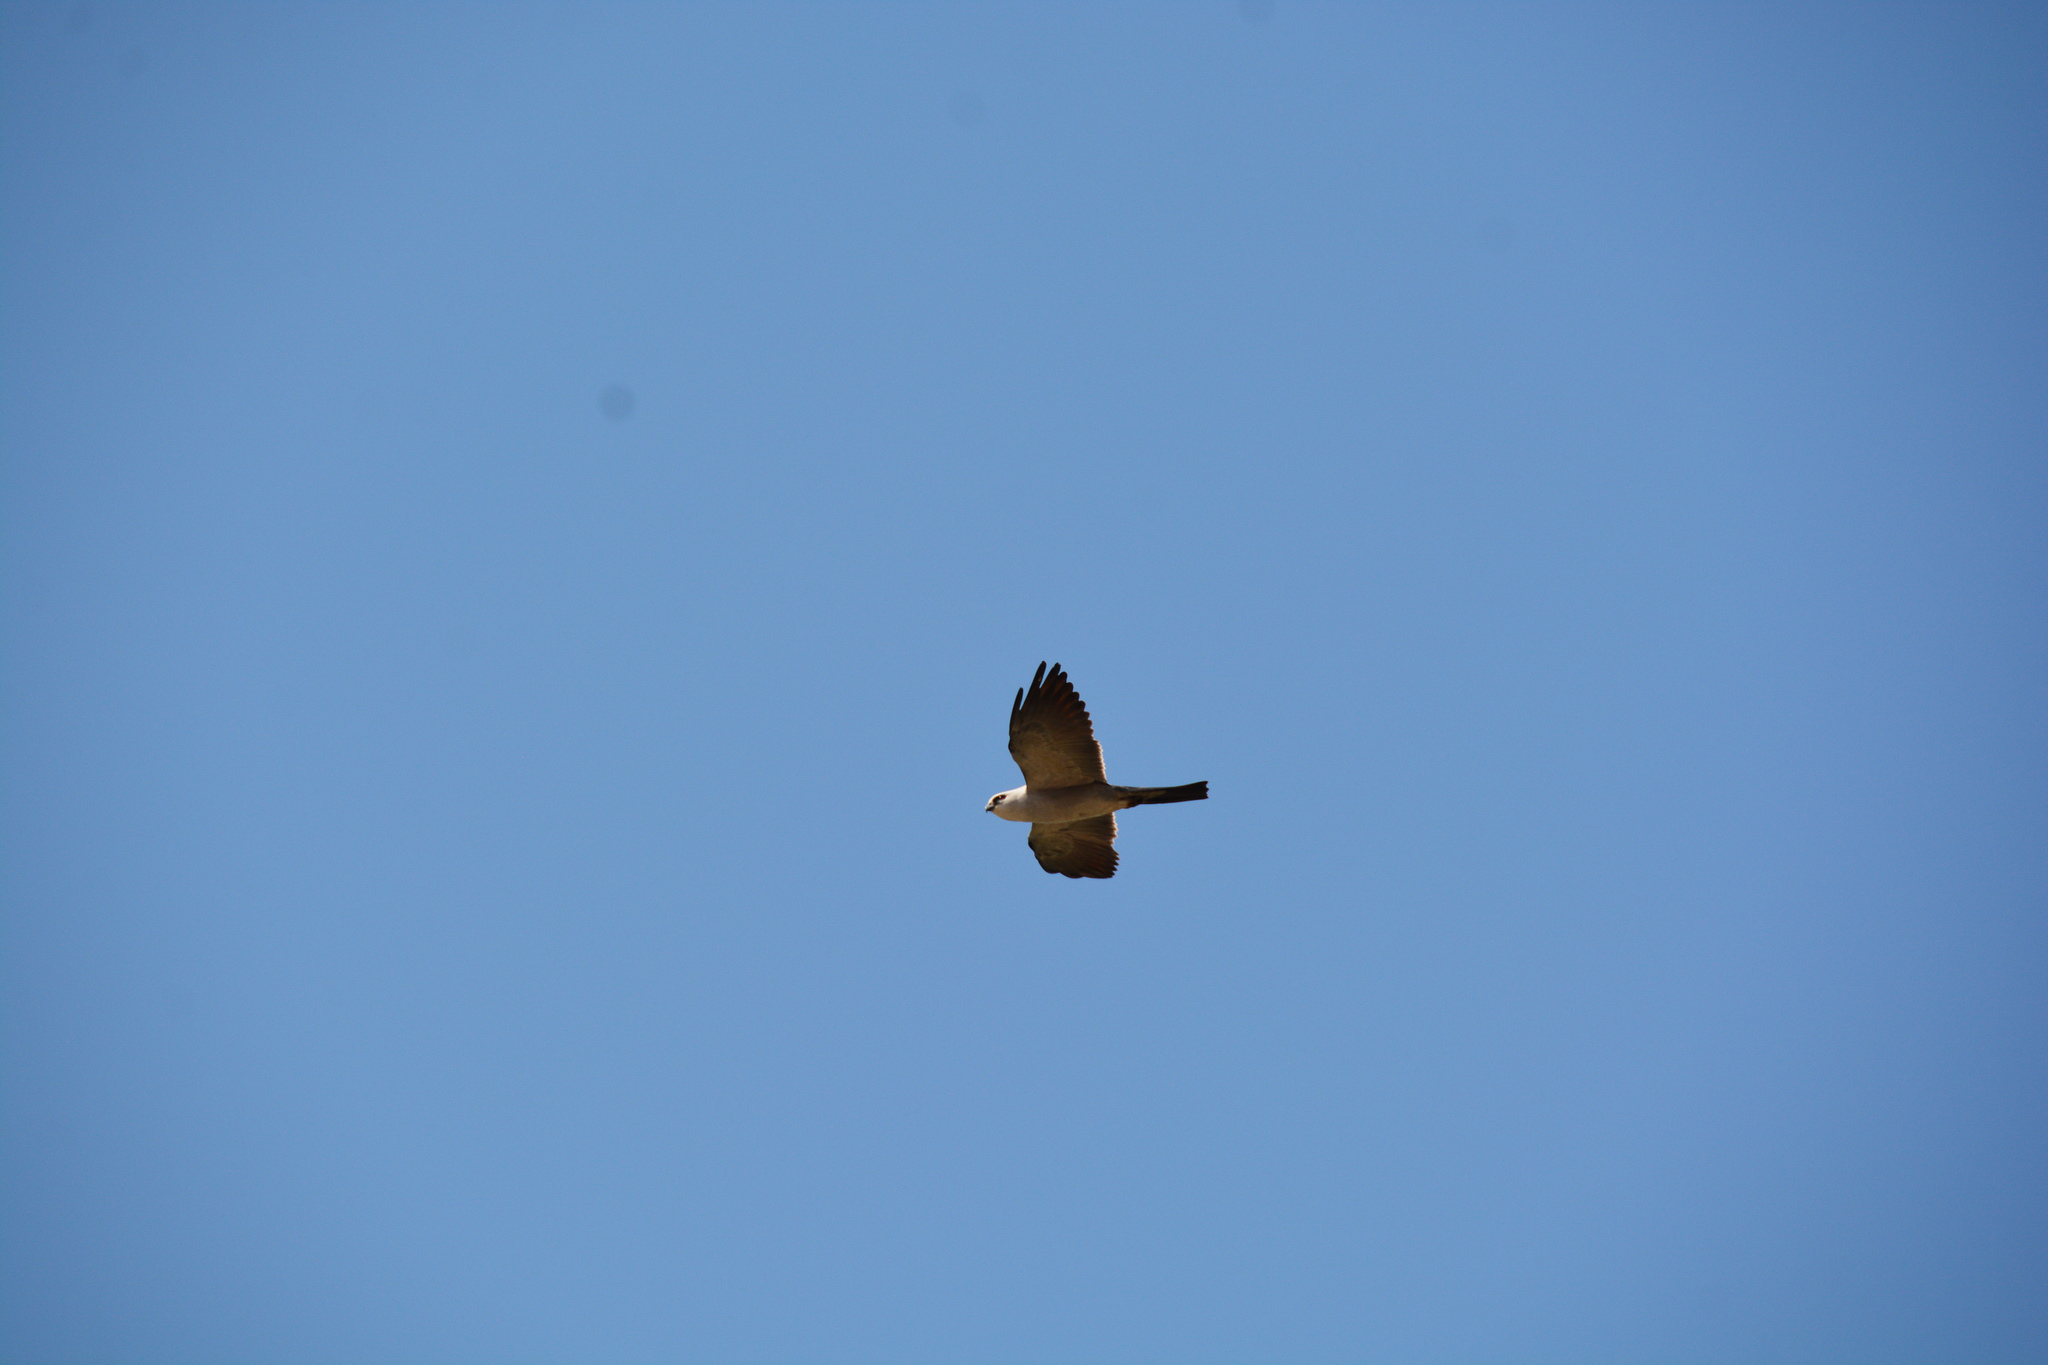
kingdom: Animalia
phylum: Chordata
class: Aves
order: Accipitriformes
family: Accipitridae
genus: Ictinia
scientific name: Ictinia mississippiensis
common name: Mississippi kite
